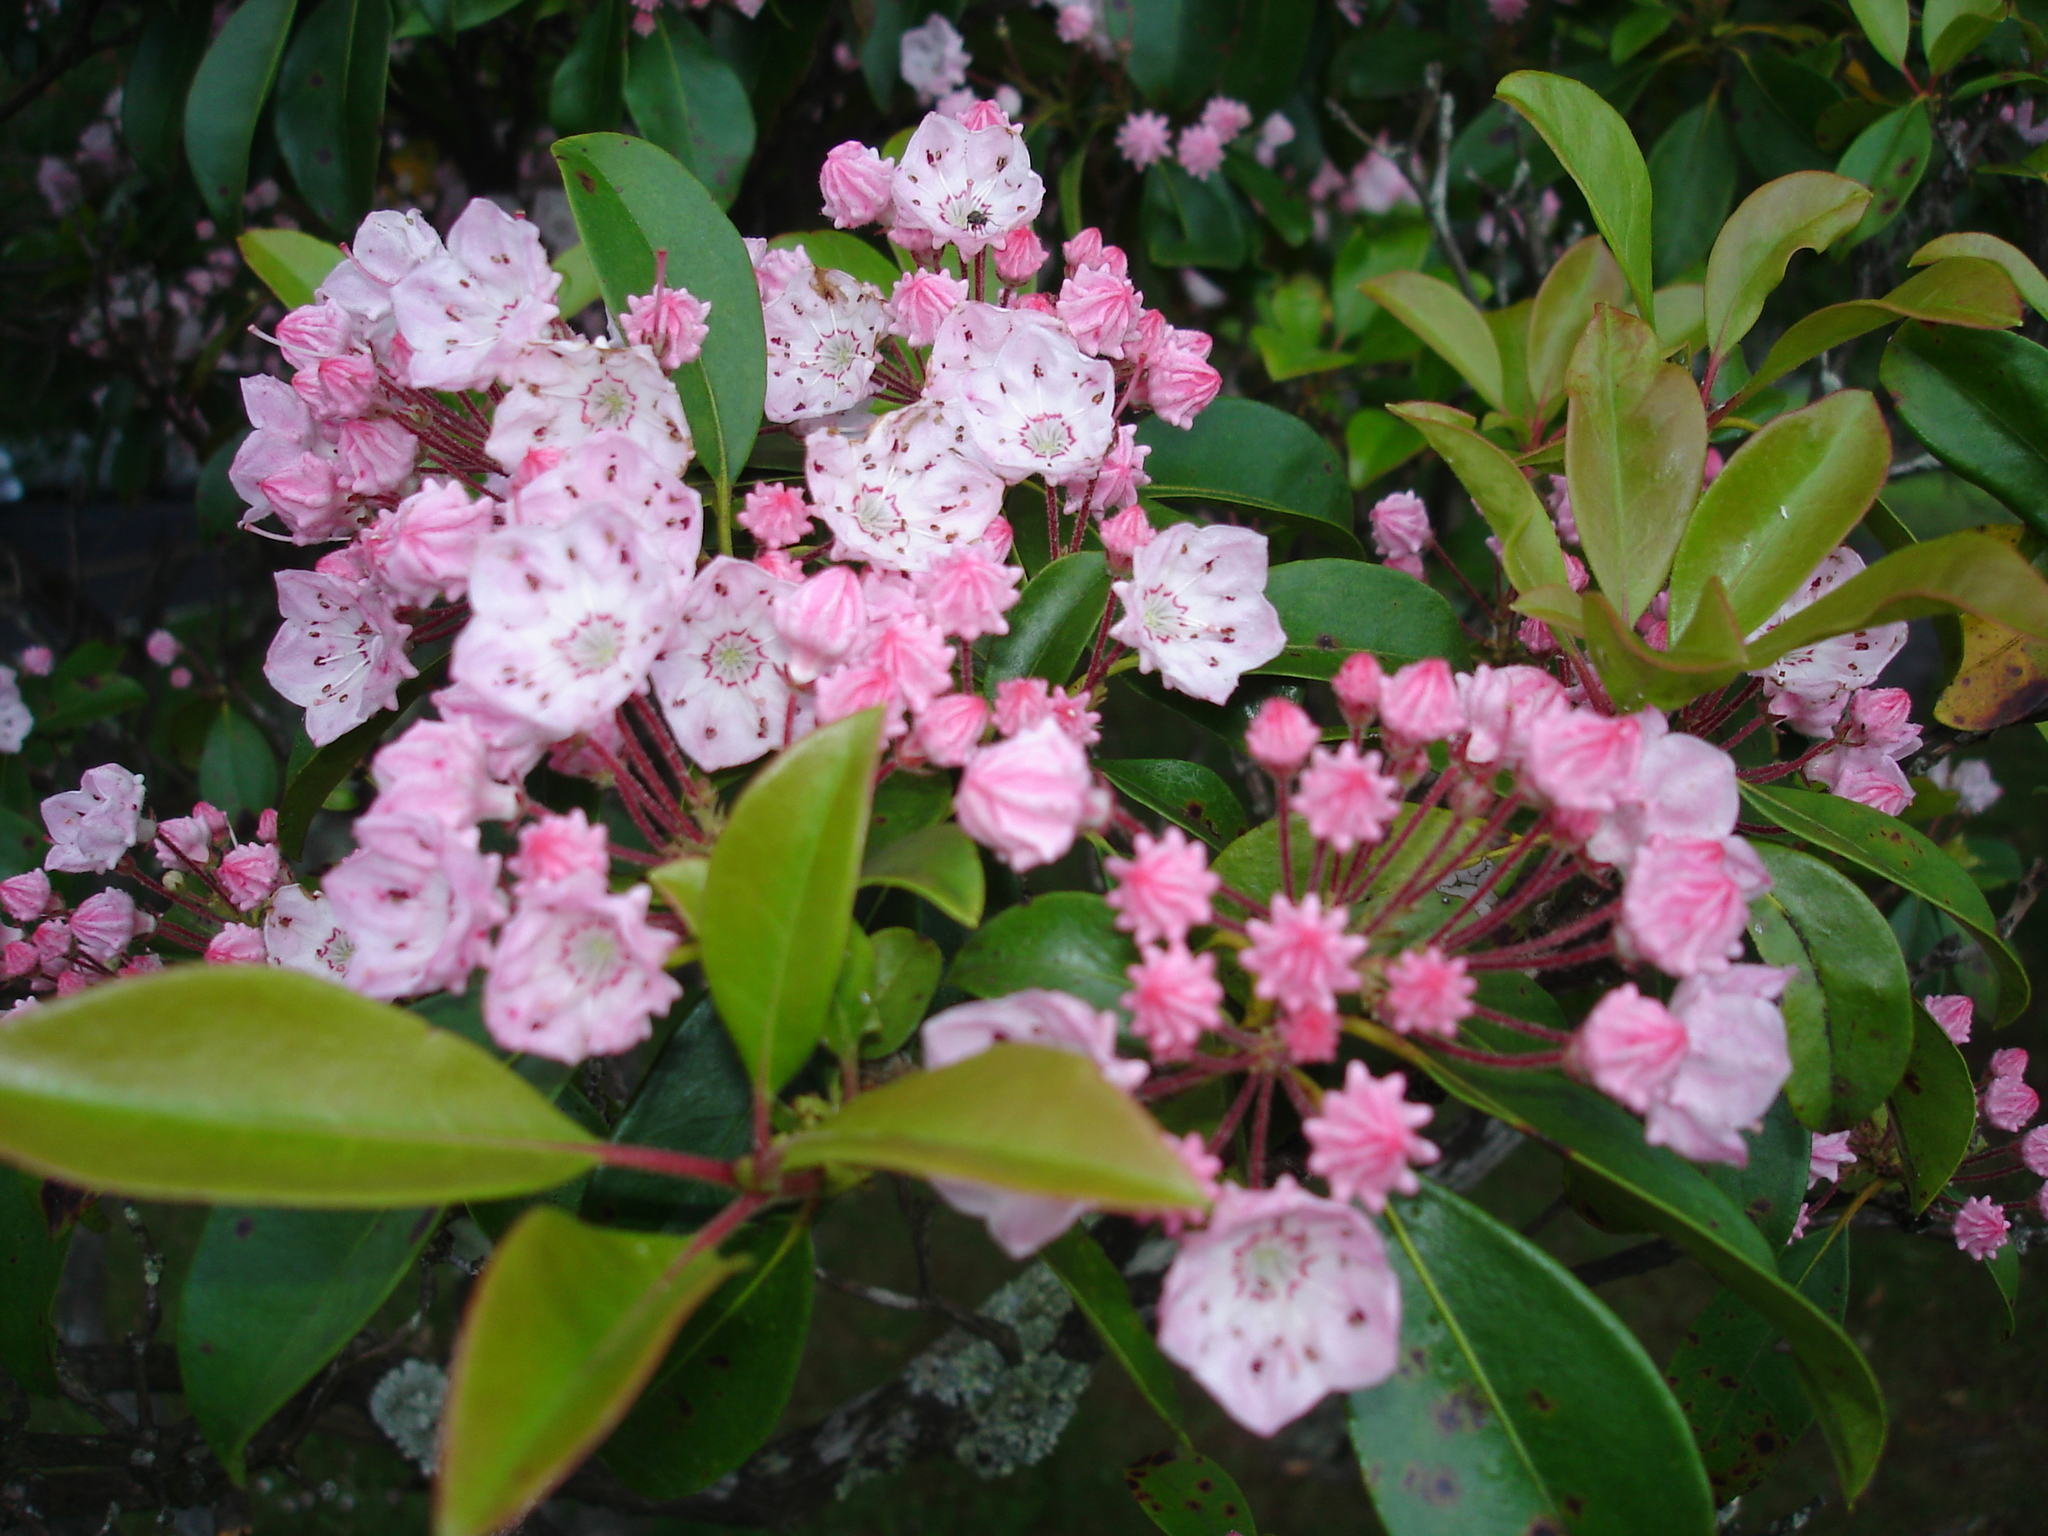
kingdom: Plantae
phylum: Tracheophyta
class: Magnoliopsida
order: Ericales
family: Ericaceae
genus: Kalmia
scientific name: Kalmia latifolia
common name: Mountain-laurel
